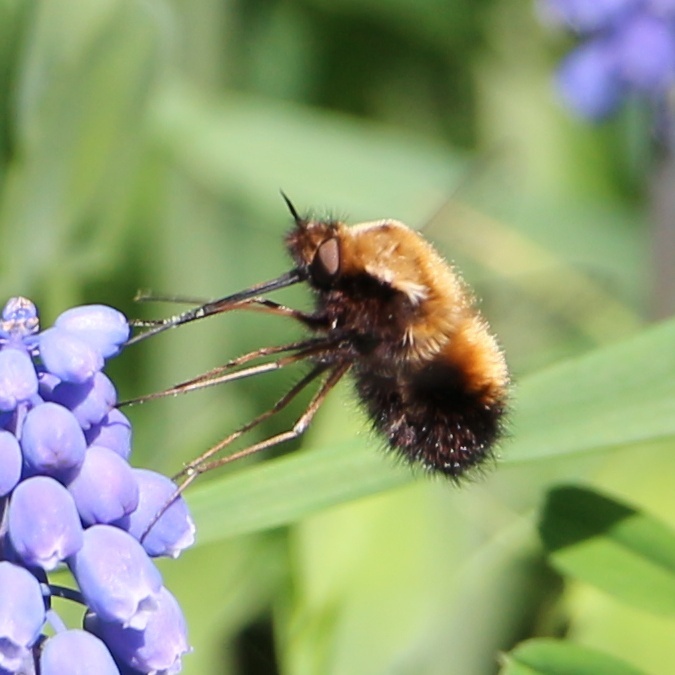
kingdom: Animalia
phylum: Arthropoda
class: Insecta
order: Diptera
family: Bombyliidae
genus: Bombylius
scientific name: Bombylius discolor
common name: Dotted bee-fly
